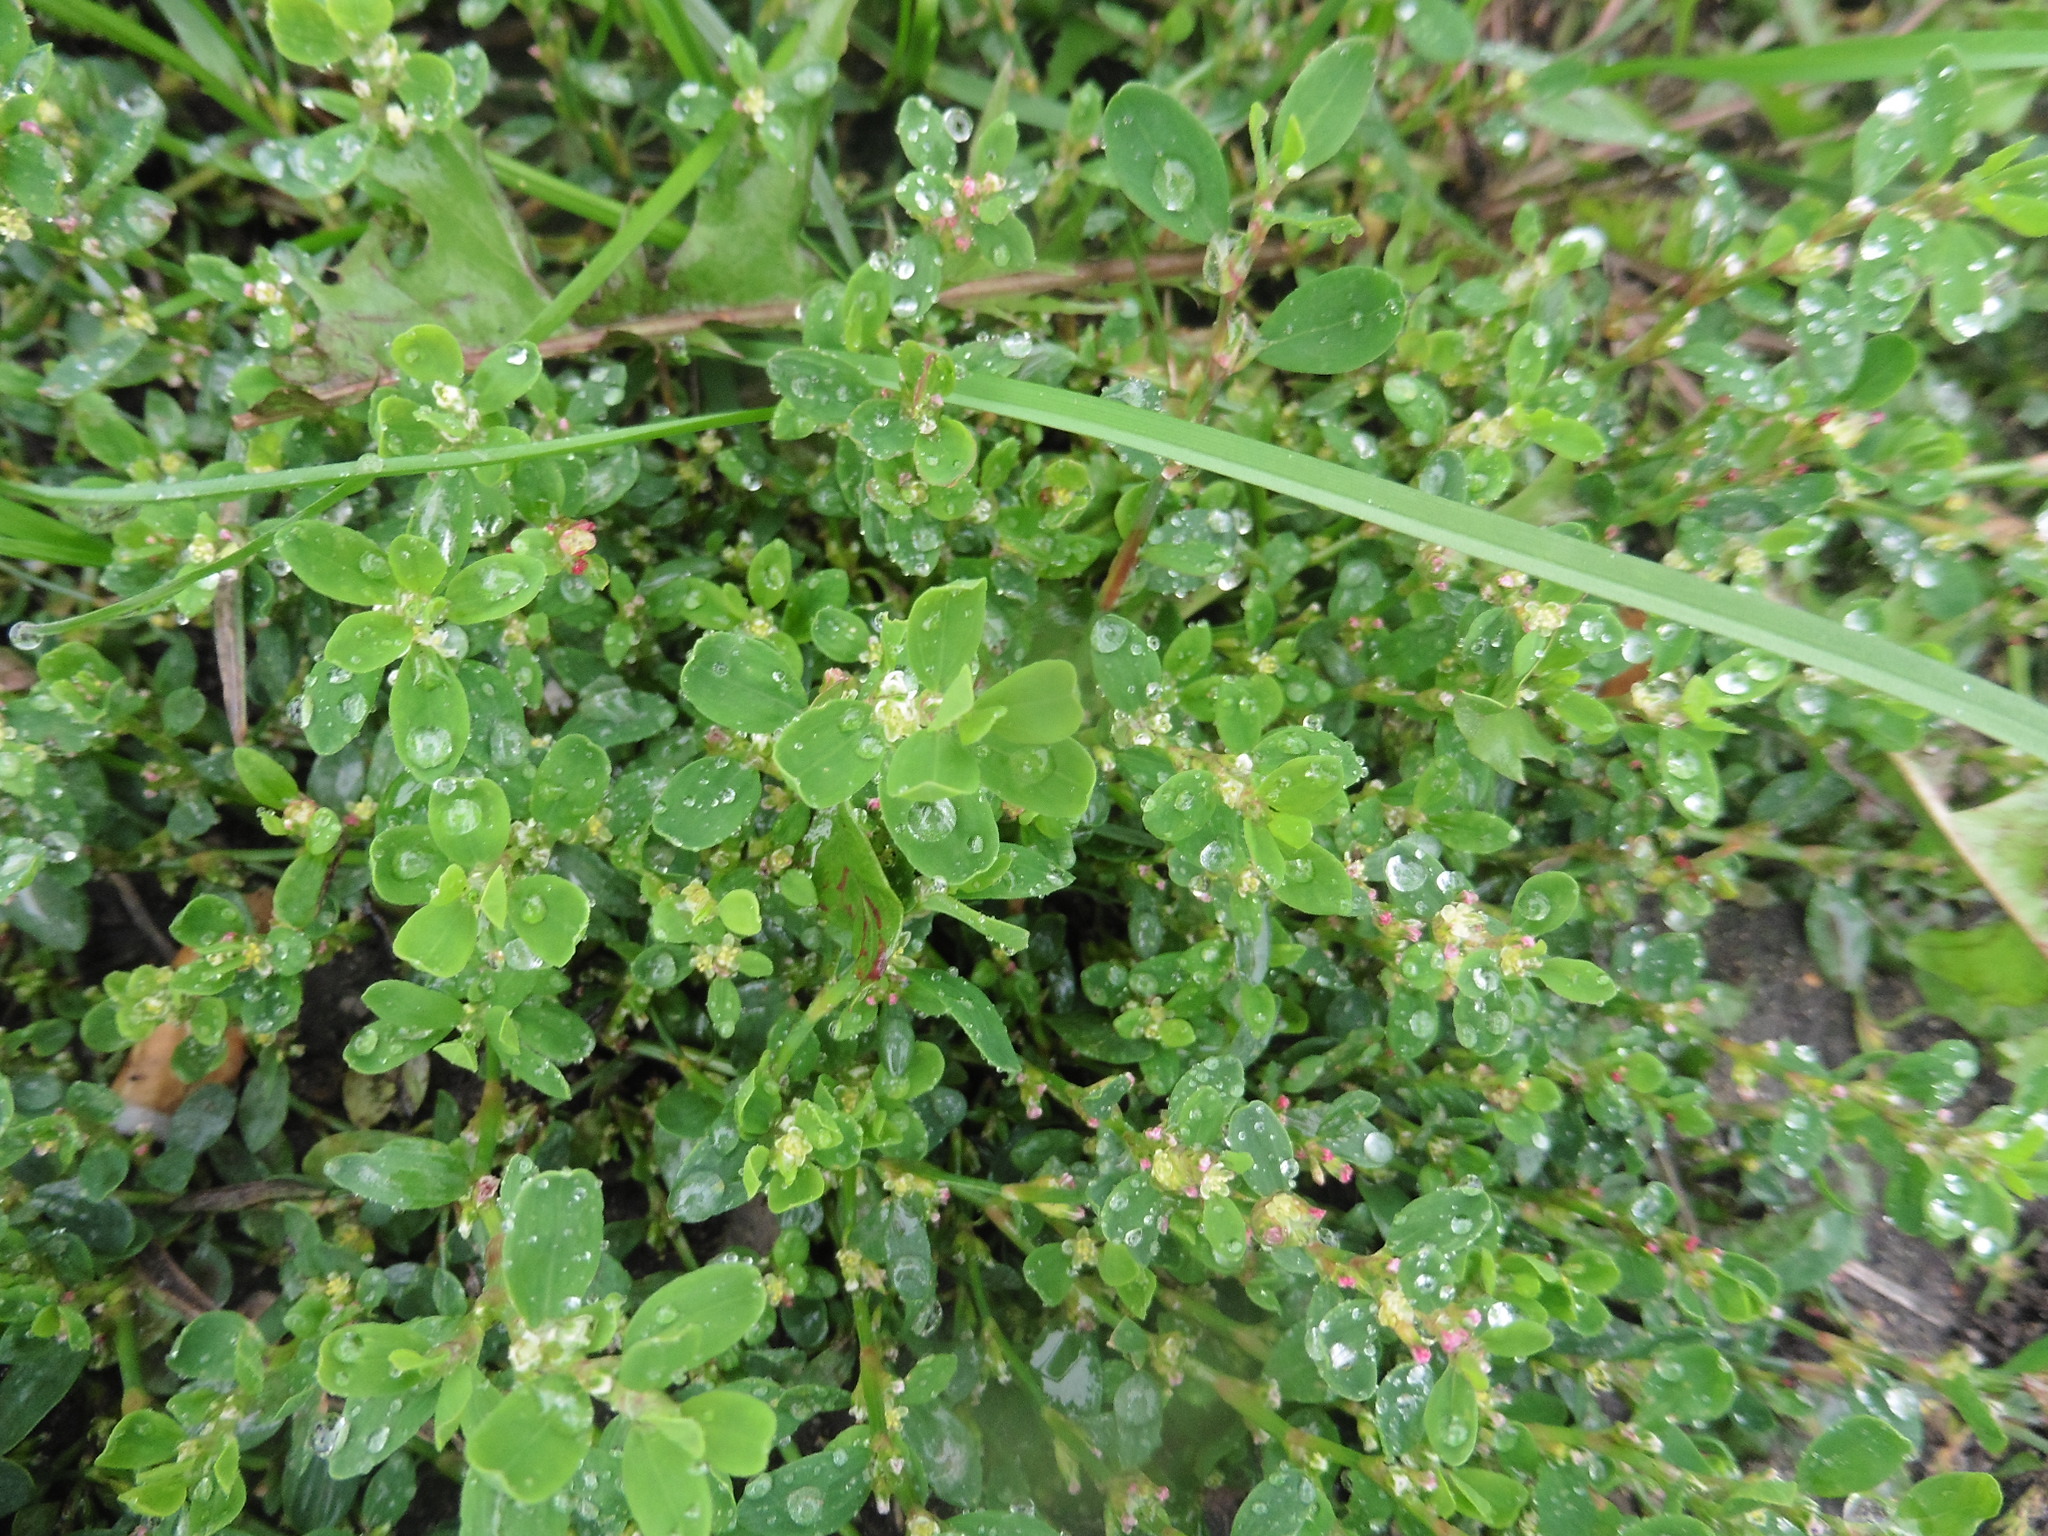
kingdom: Plantae
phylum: Tracheophyta
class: Magnoliopsida
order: Caryophyllales
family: Polygonaceae
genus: Polygonum
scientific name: Polygonum
